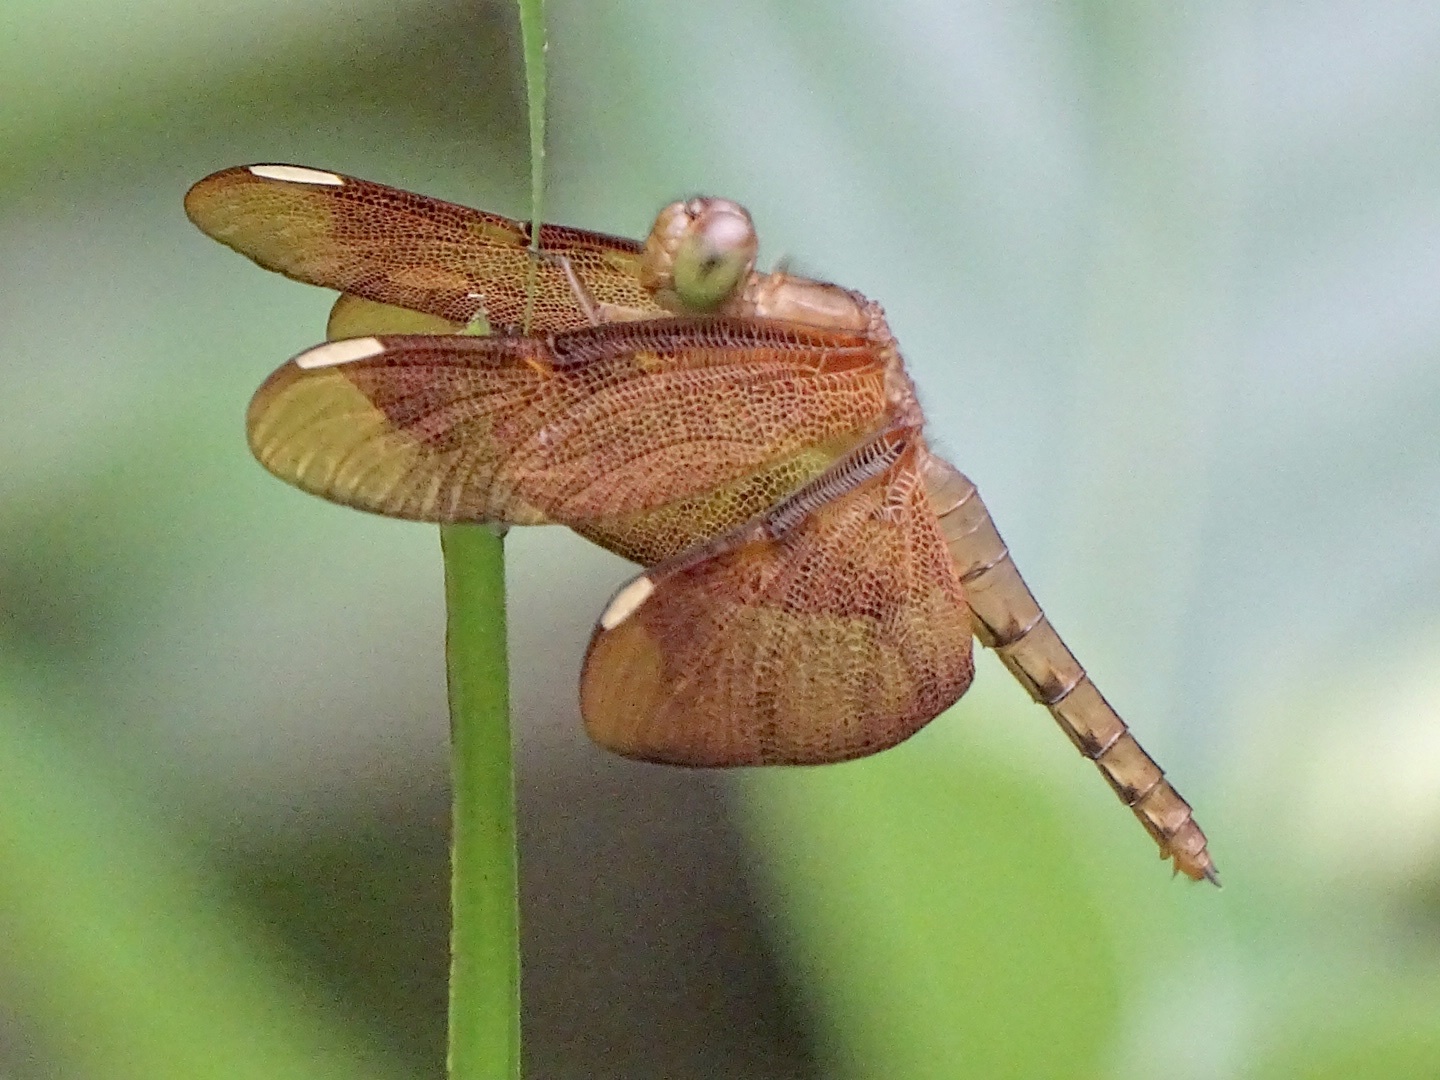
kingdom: Animalia
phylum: Arthropoda
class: Insecta
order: Odonata
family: Libellulidae
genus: Neurothemis
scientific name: Neurothemis fulvia
